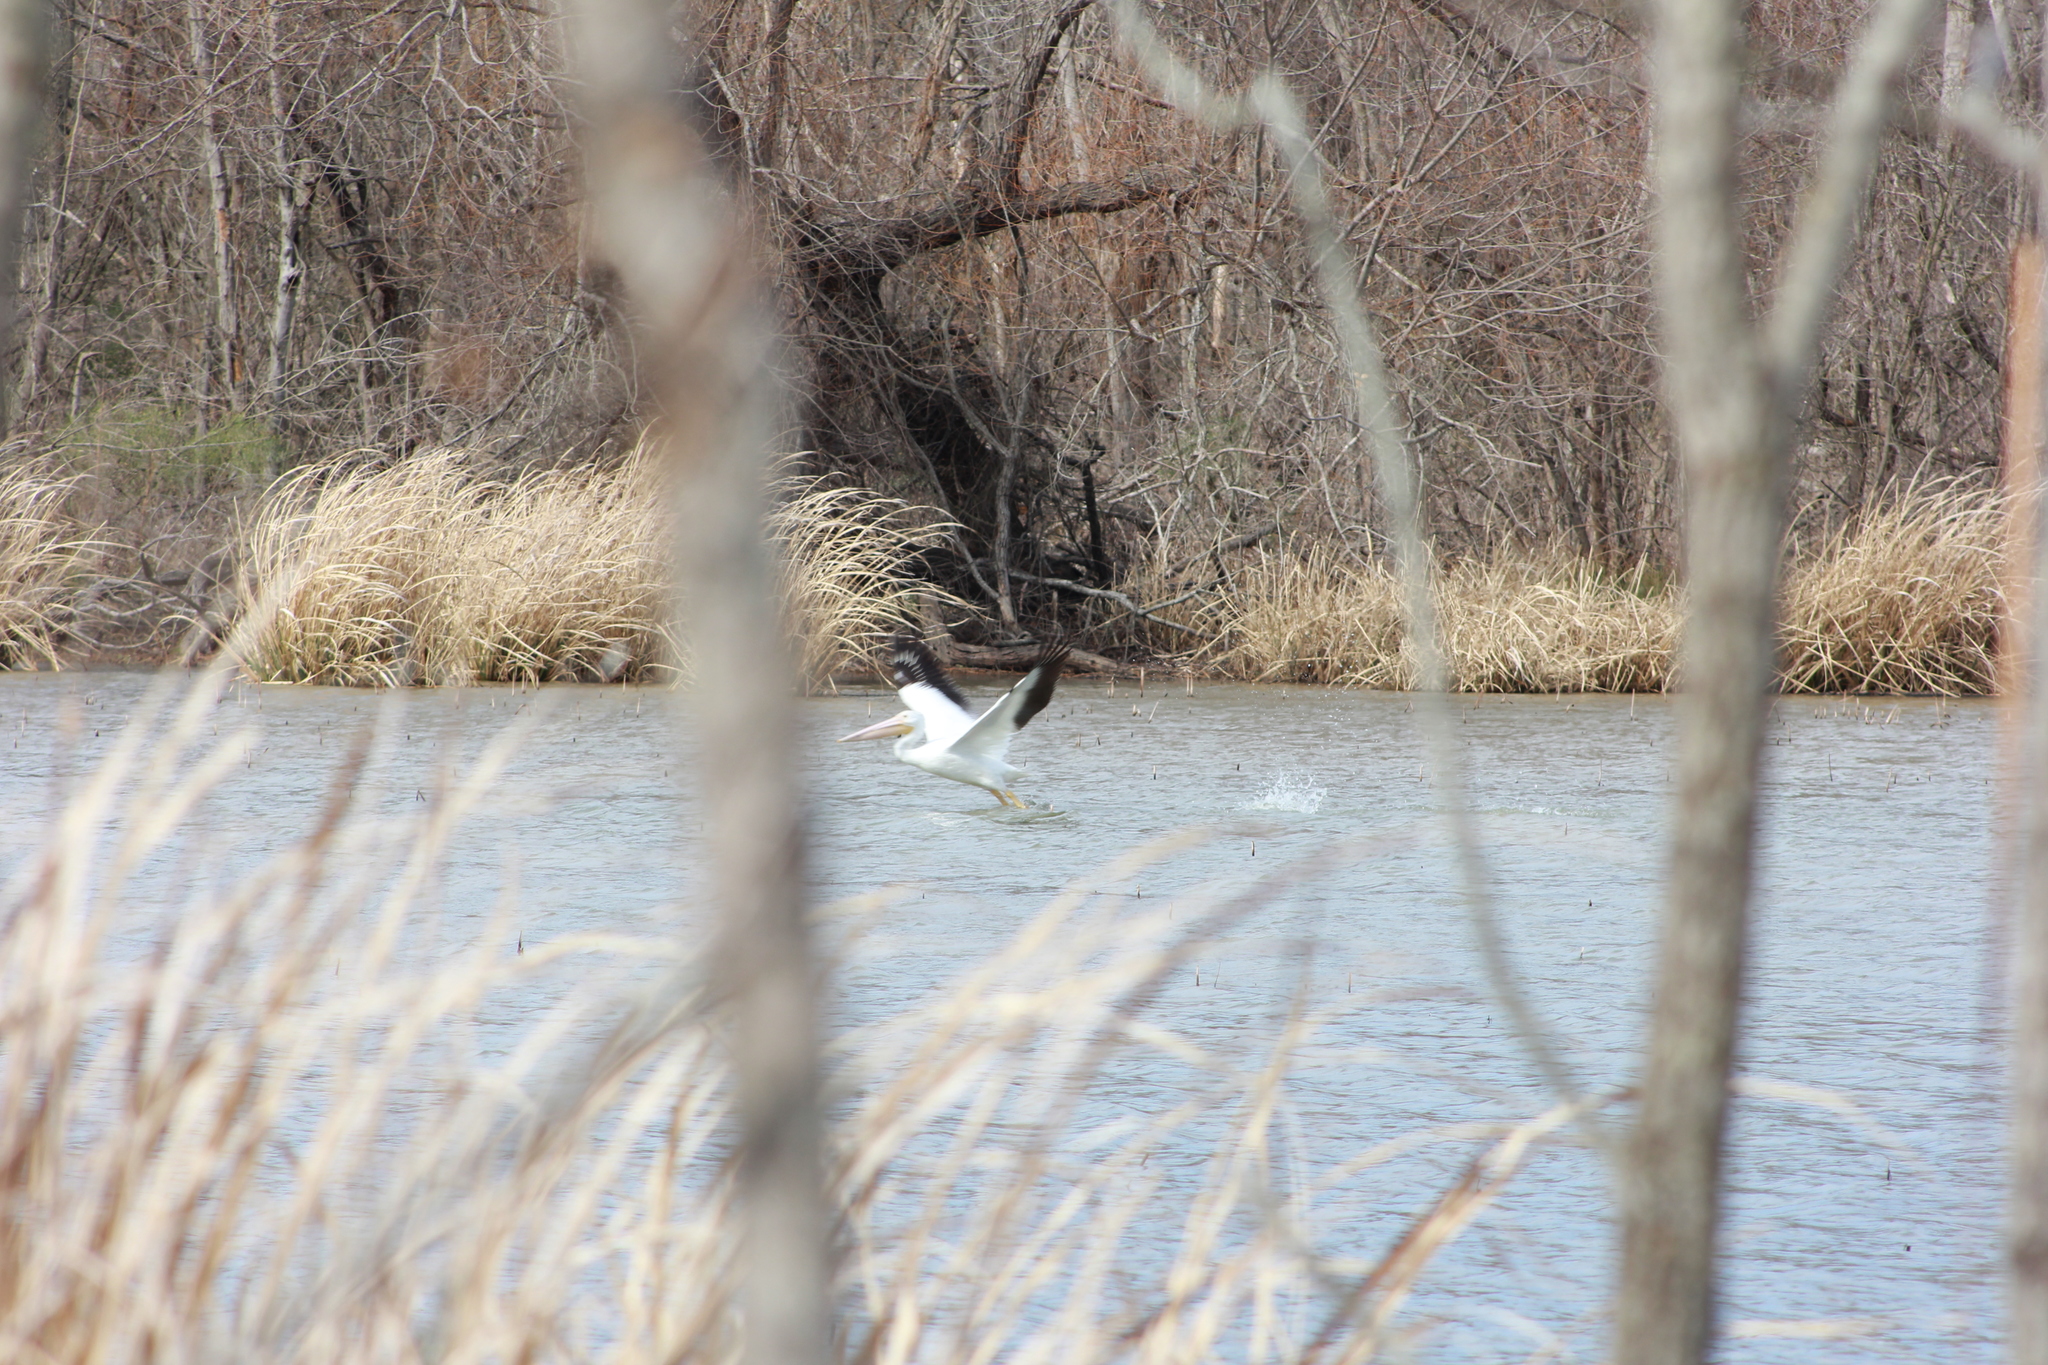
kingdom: Animalia
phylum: Chordata
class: Aves
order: Pelecaniformes
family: Pelecanidae
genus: Pelecanus
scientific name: Pelecanus erythrorhynchos
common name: American white pelican
